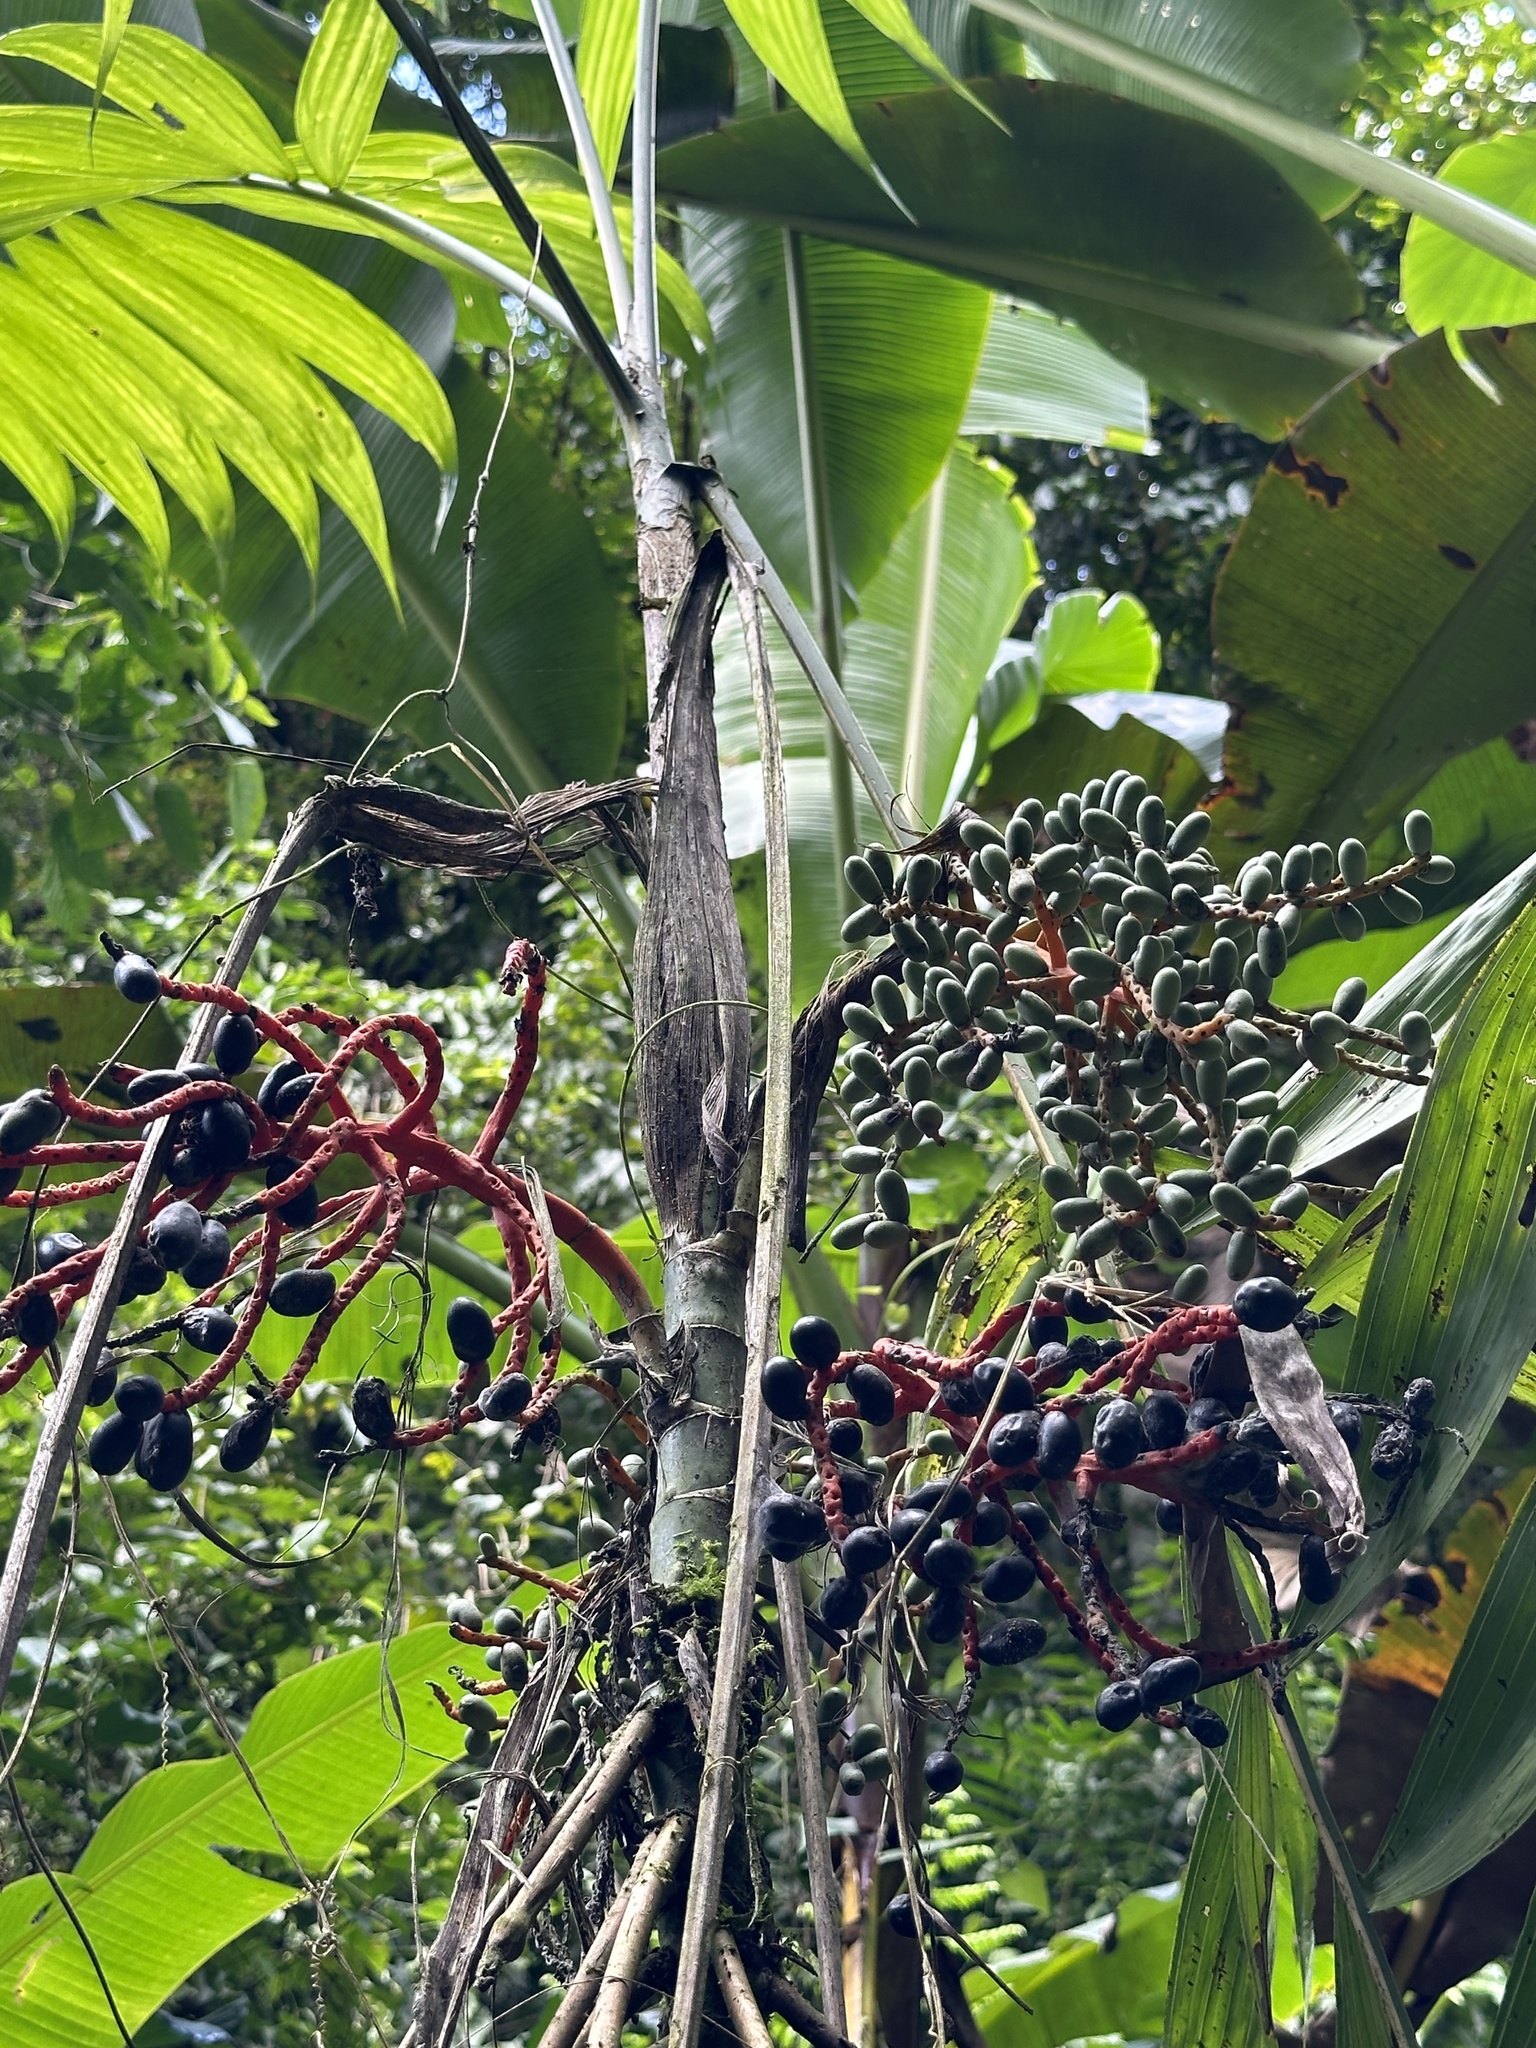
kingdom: Plantae
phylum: Tracheophyta
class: Liliopsida
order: Arecales
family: Arecaceae
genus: Chamaedorea
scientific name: Chamaedorea tepejilote
